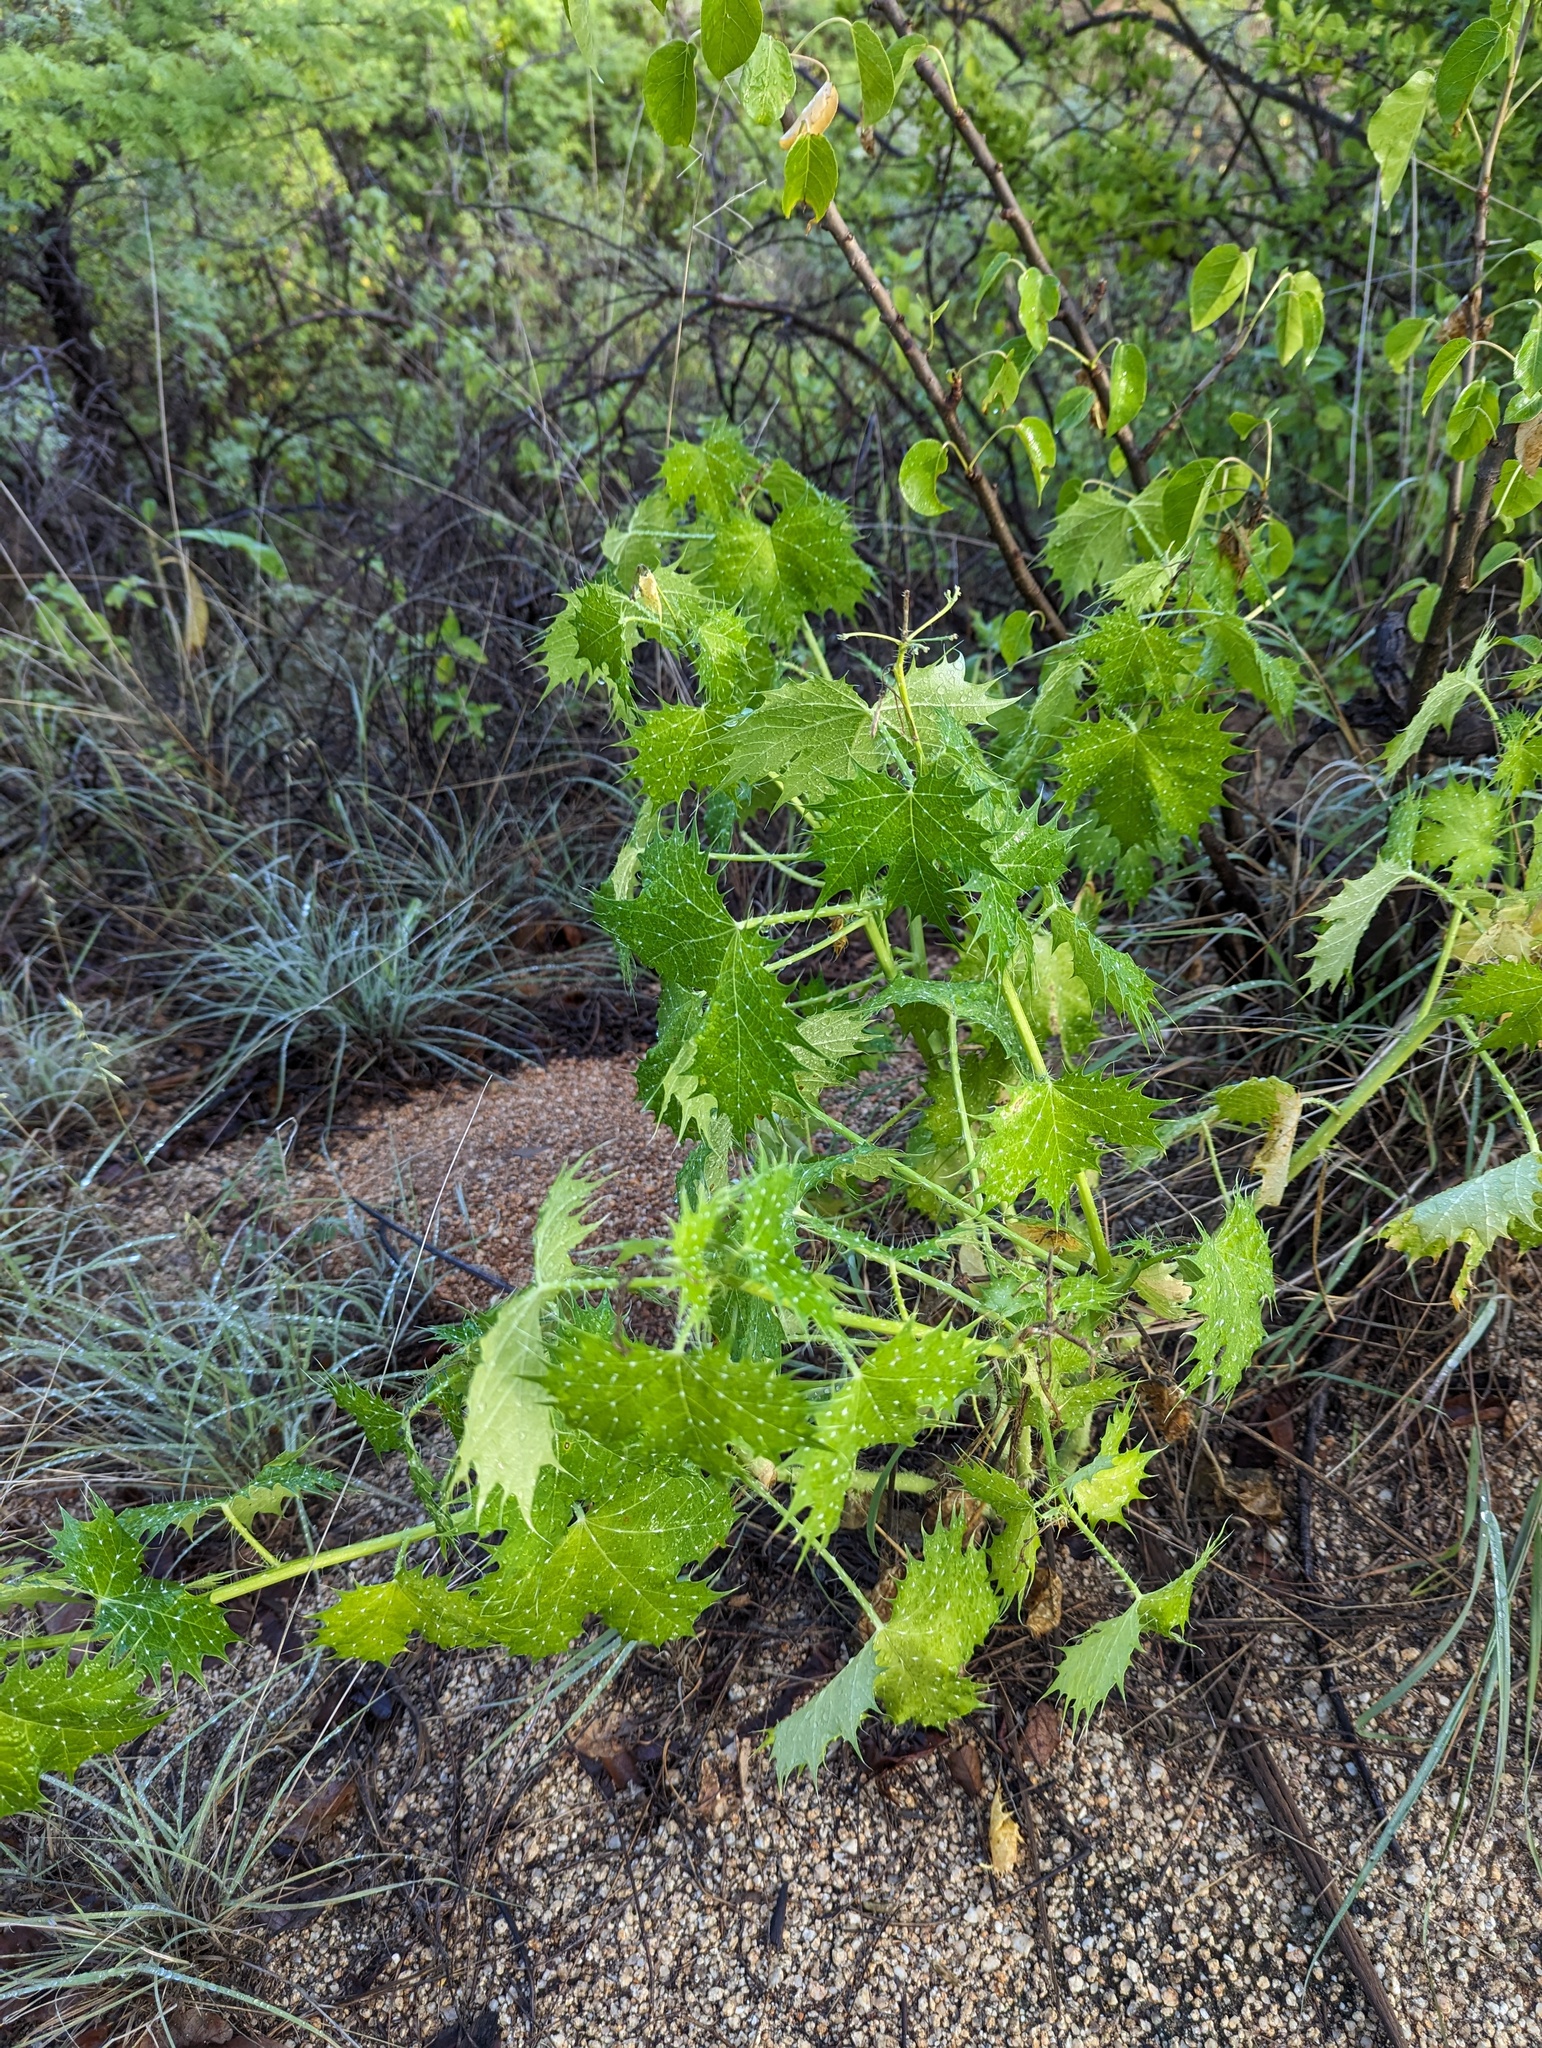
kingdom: Plantae
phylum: Tracheophyta
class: Magnoliopsida
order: Malpighiales
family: Euphorbiaceae
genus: Cnidoscolus
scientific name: Cnidoscolus maculatus
